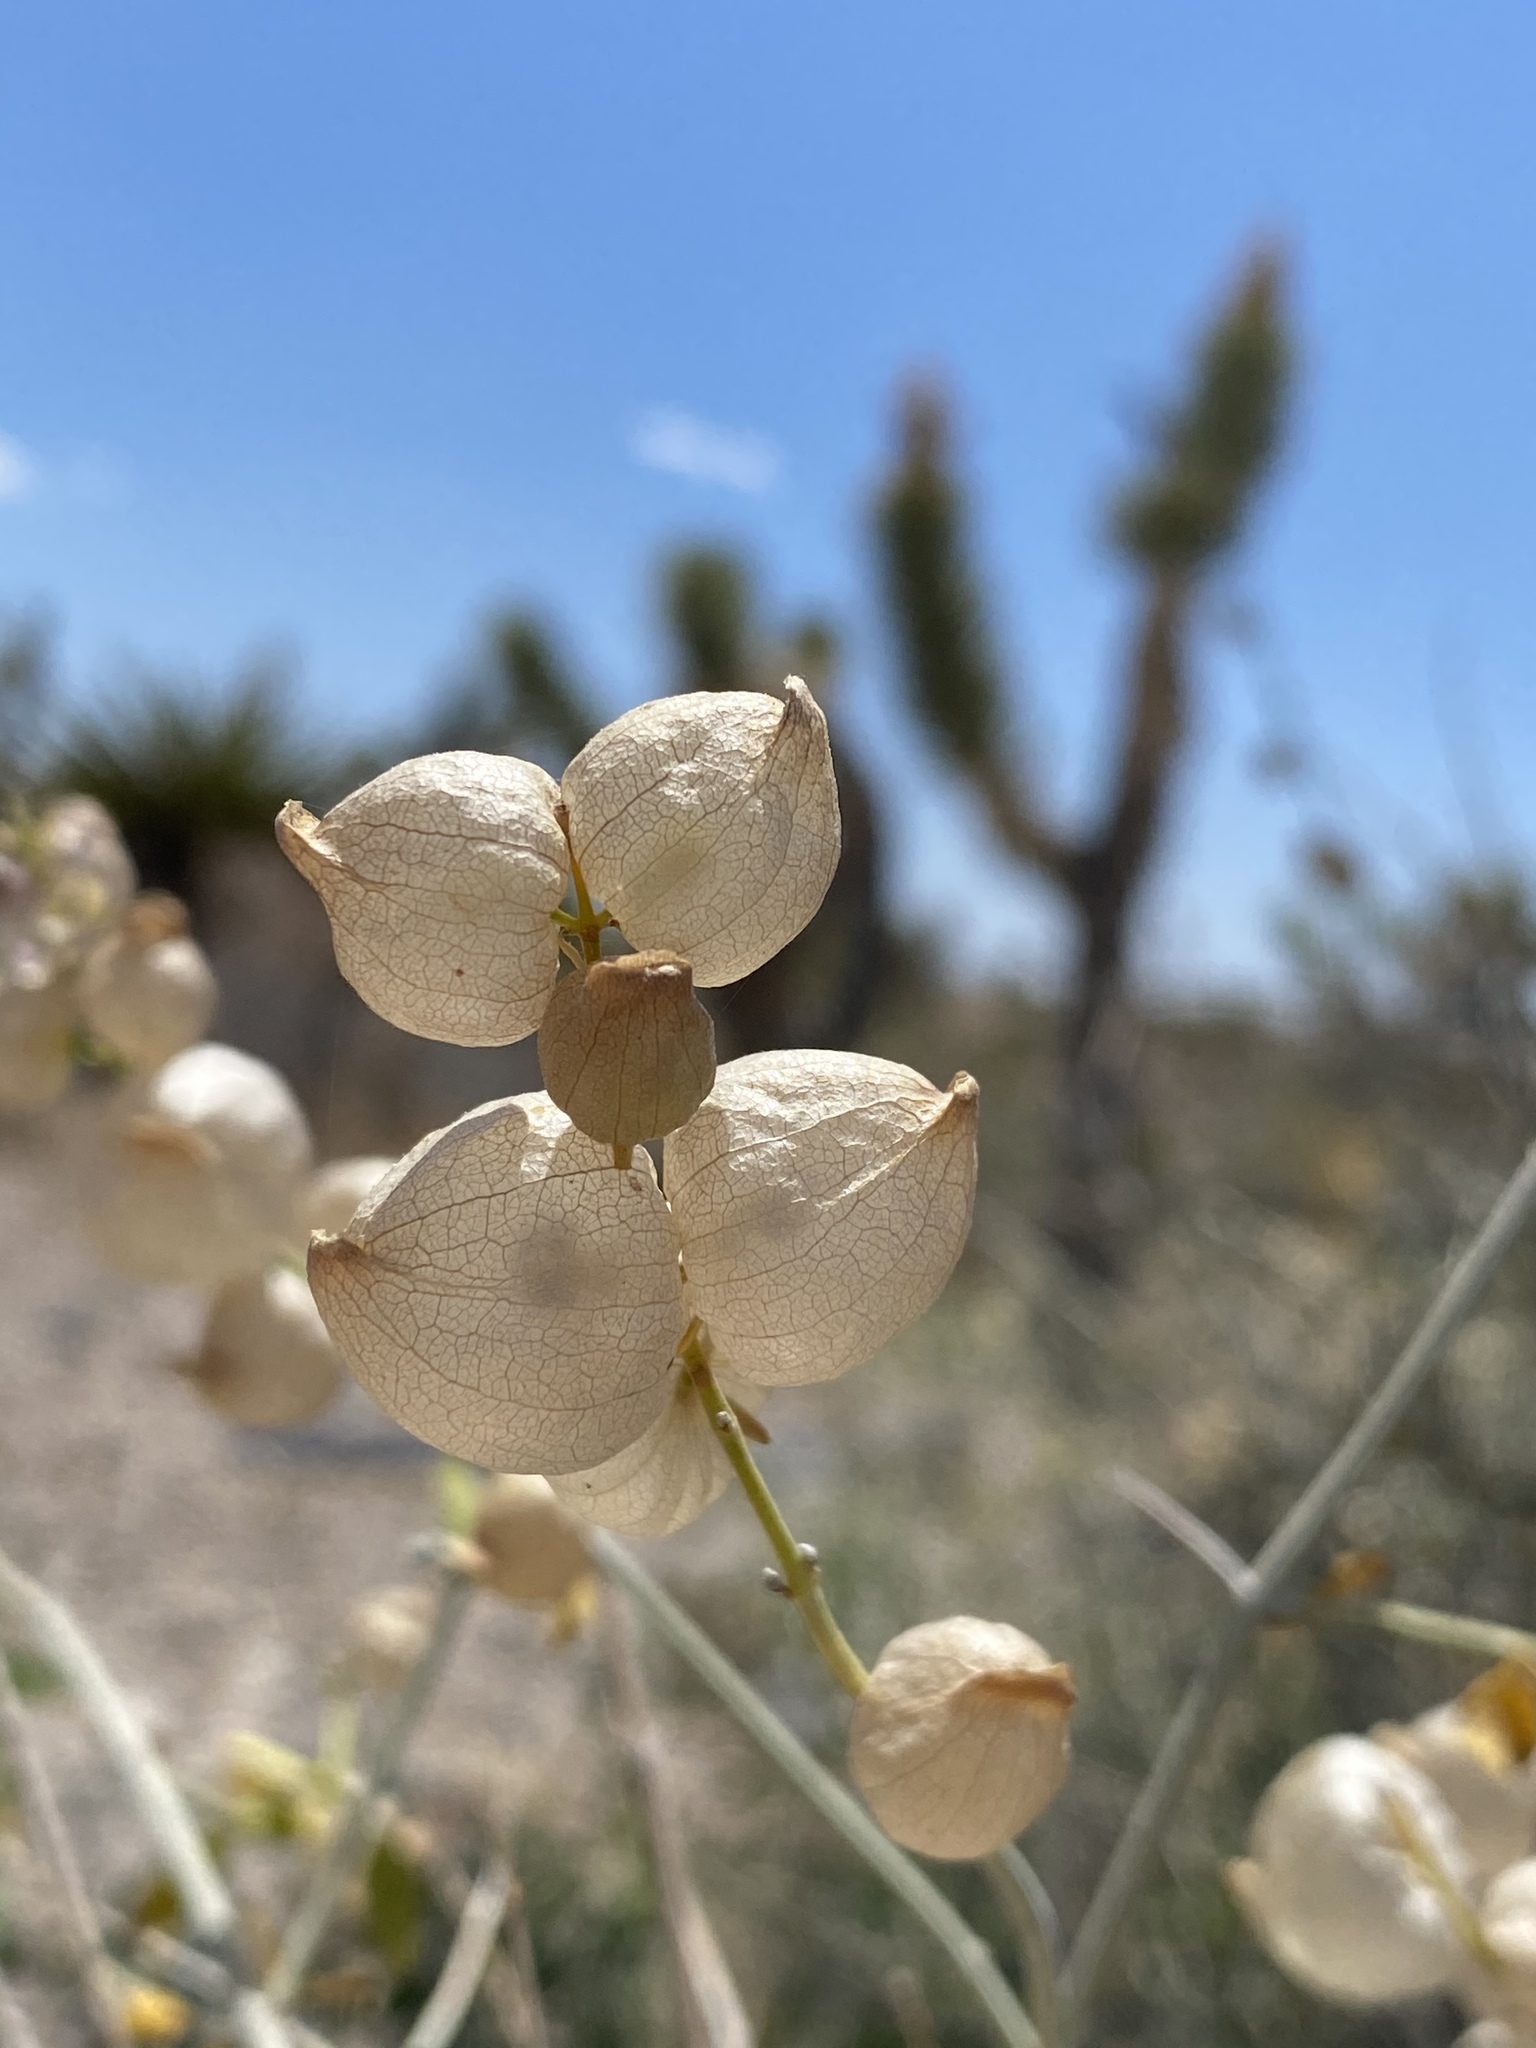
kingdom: Plantae
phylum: Tracheophyta
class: Magnoliopsida
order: Lamiales
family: Lamiaceae
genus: Scutellaria
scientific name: Scutellaria mexicana
